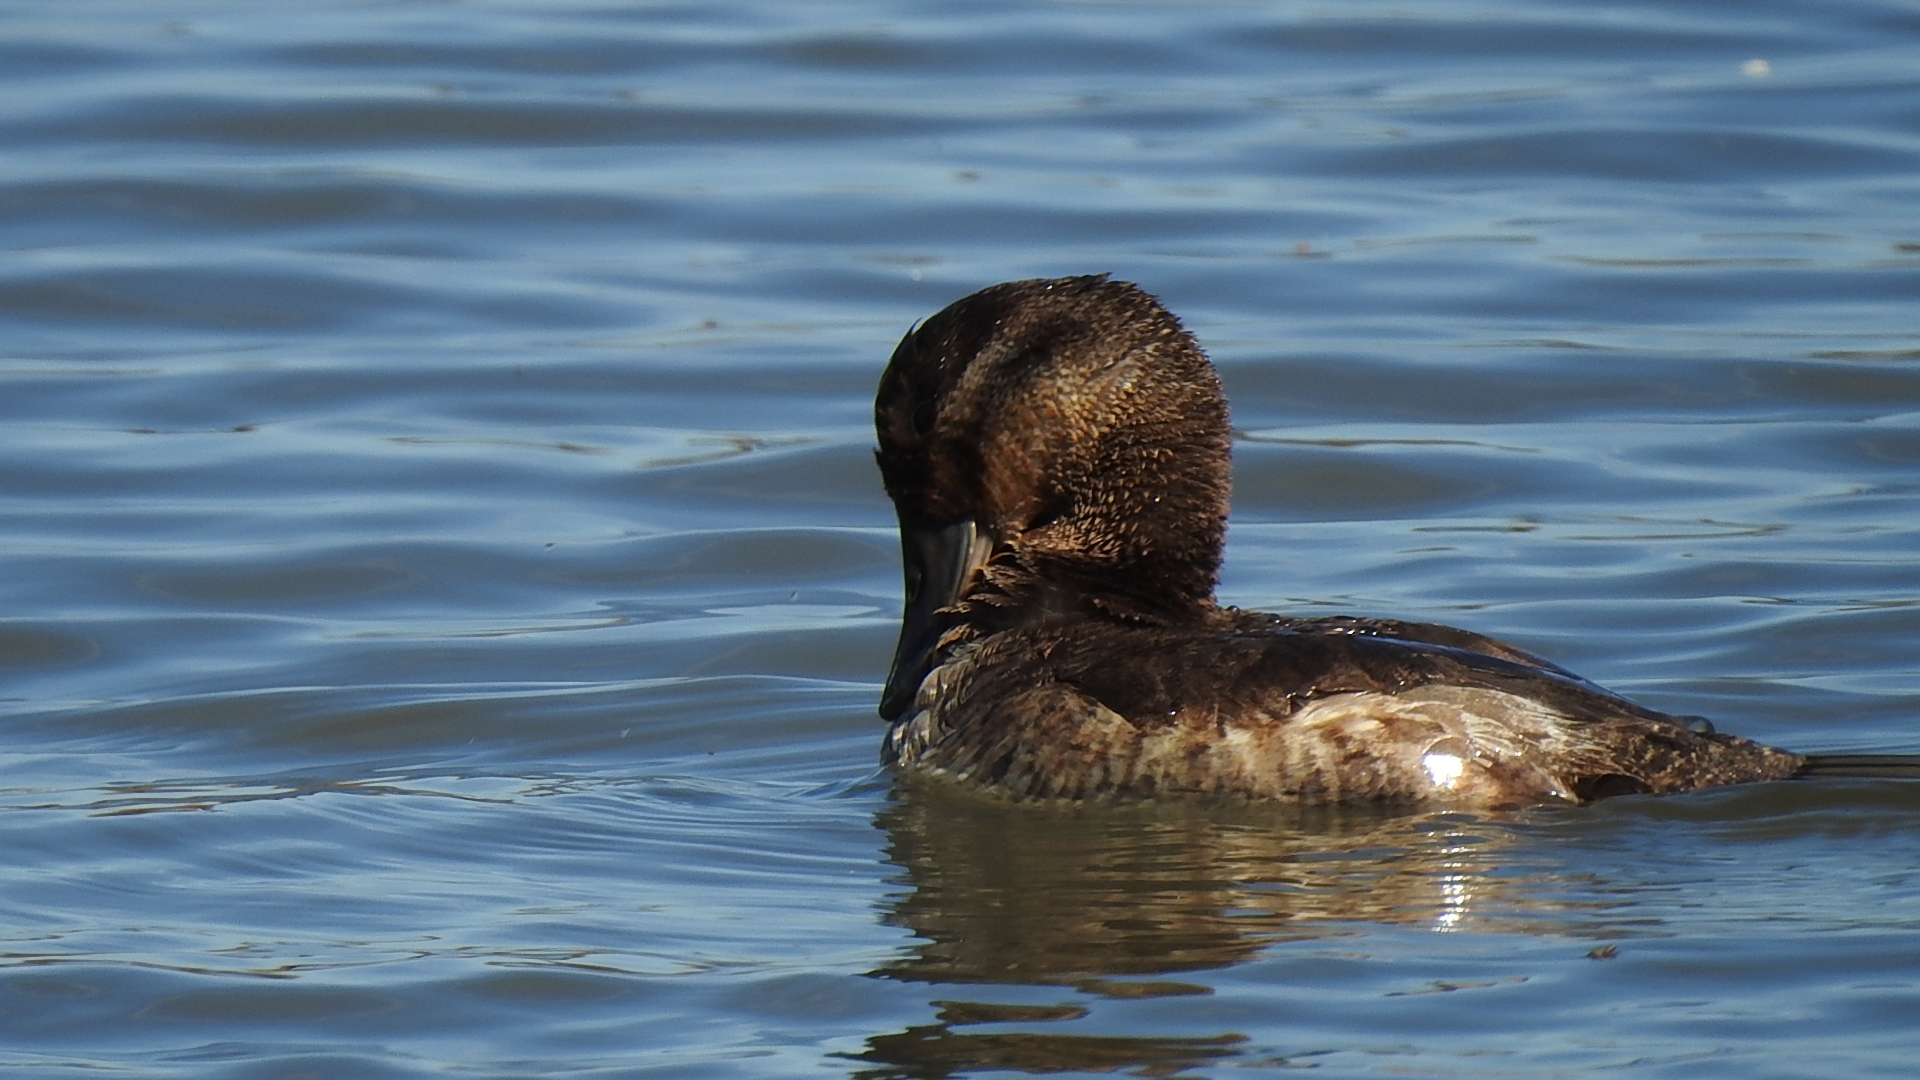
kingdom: Animalia
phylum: Chordata
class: Aves
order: Anseriformes
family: Anatidae
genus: Oxyura
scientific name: Oxyura jamaicensis
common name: Ruddy duck
